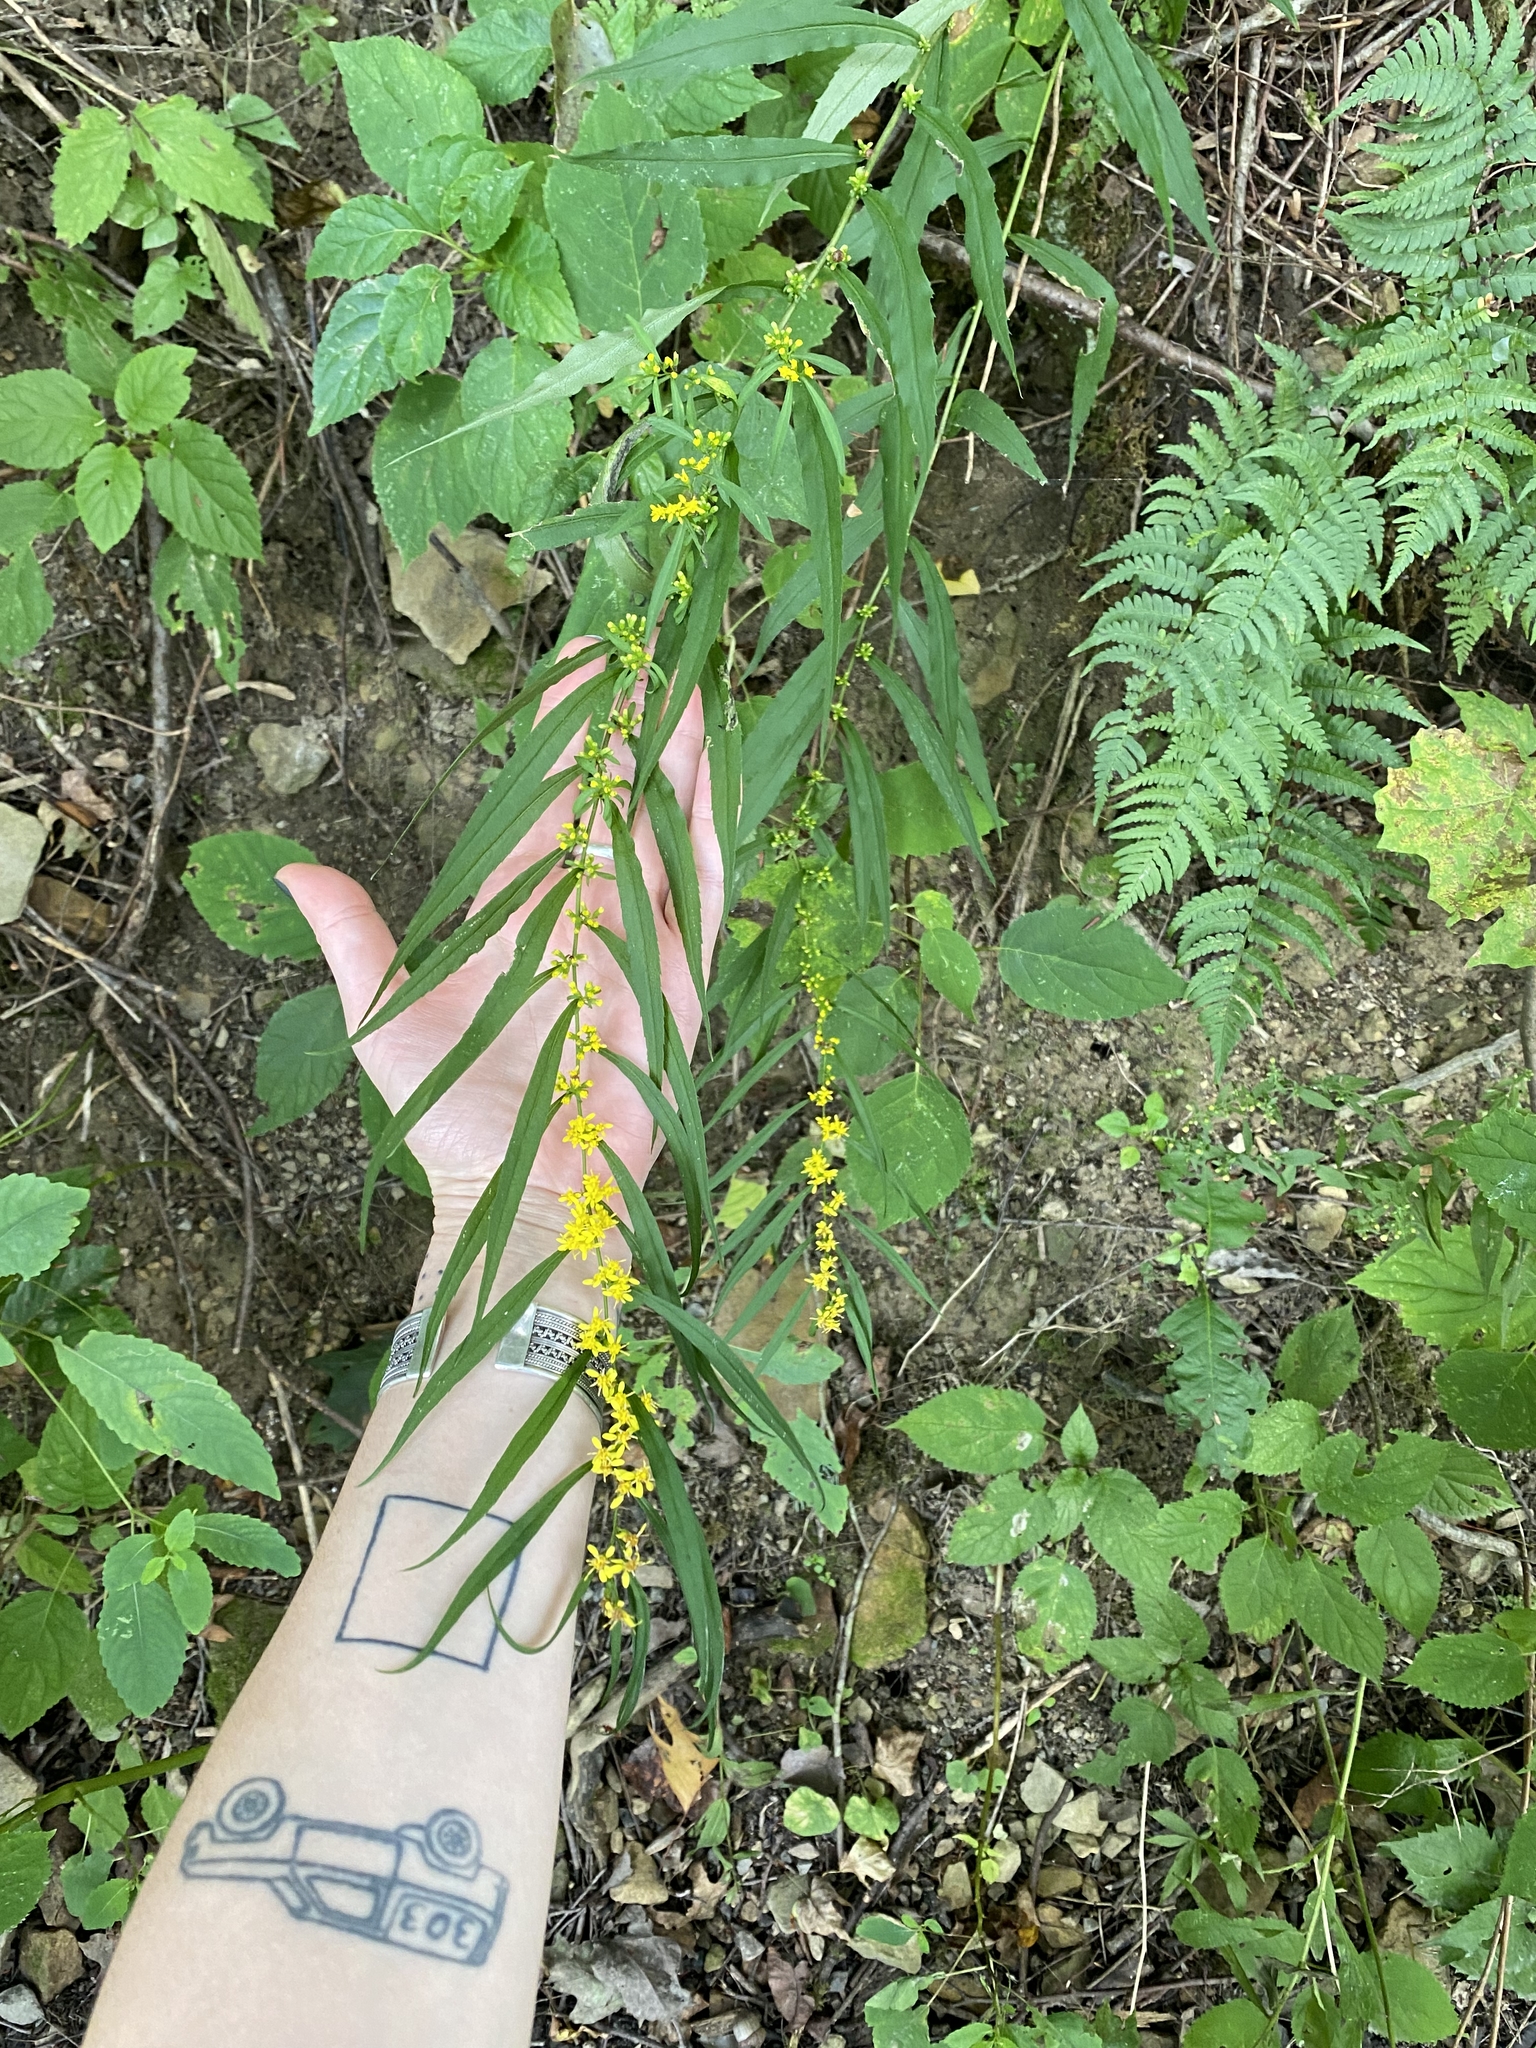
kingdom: Plantae
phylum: Tracheophyta
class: Magnoliopsida
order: Asterales
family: Asteraceae
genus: Solidago
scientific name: Solidago caesia
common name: Woodland goldenrod
